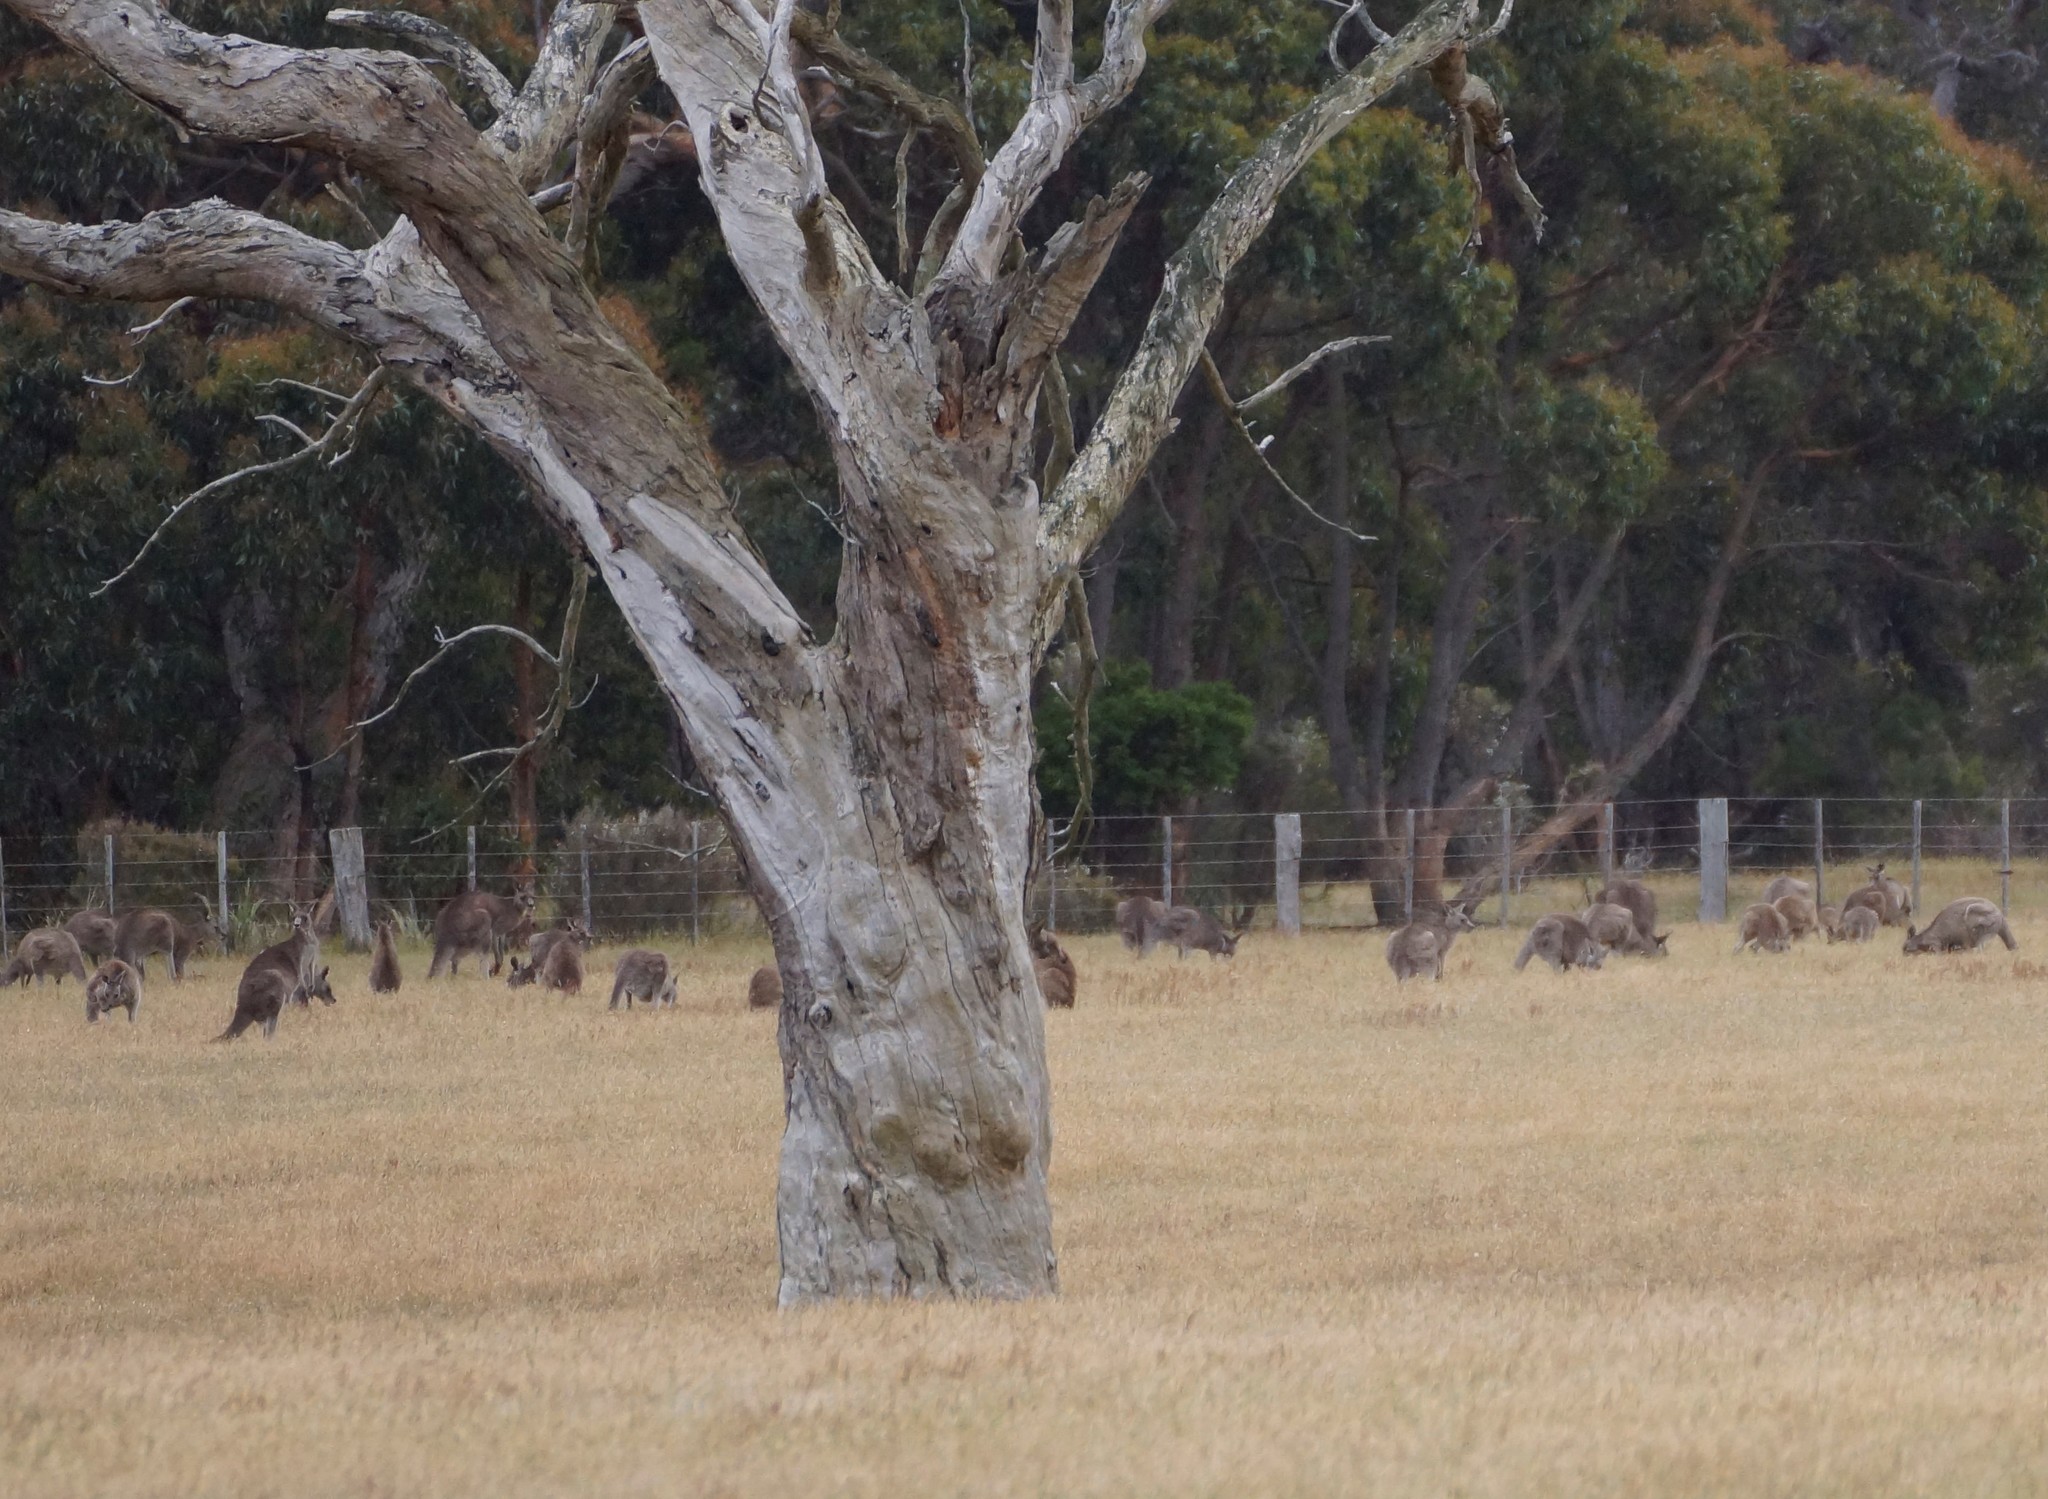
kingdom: Animalia
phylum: Chordata
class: Mammalia
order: Diprotodontia
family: Macropodidae
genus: Macropus
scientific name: Macropus giganteus
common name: Eastern grey kangaroo
